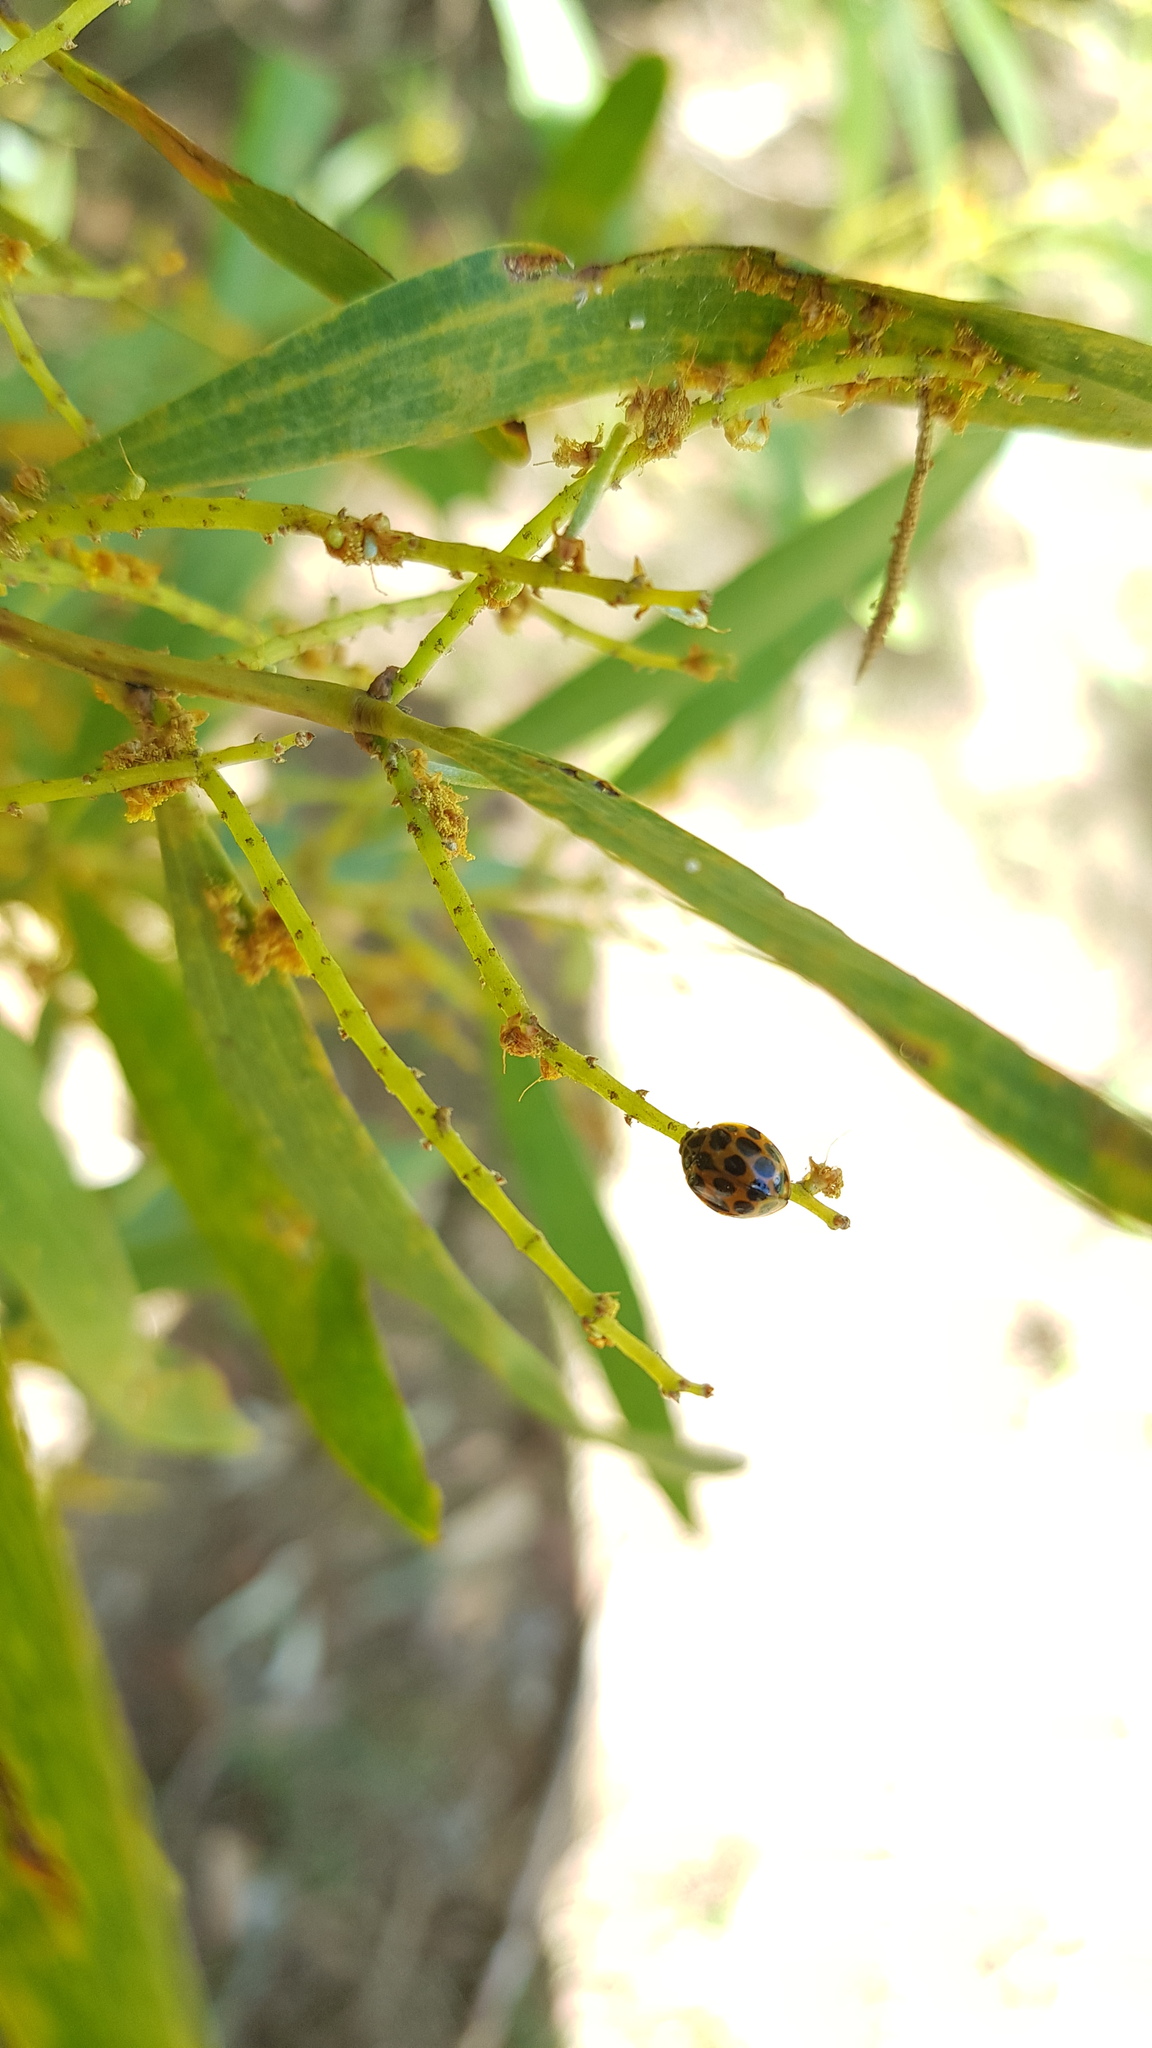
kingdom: Animalia
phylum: Arthropoda
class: Insecta
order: Coleoptera
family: Coccinellidae
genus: Harmonia
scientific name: Harmonia conformis
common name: Common spotted ladybird beetle
